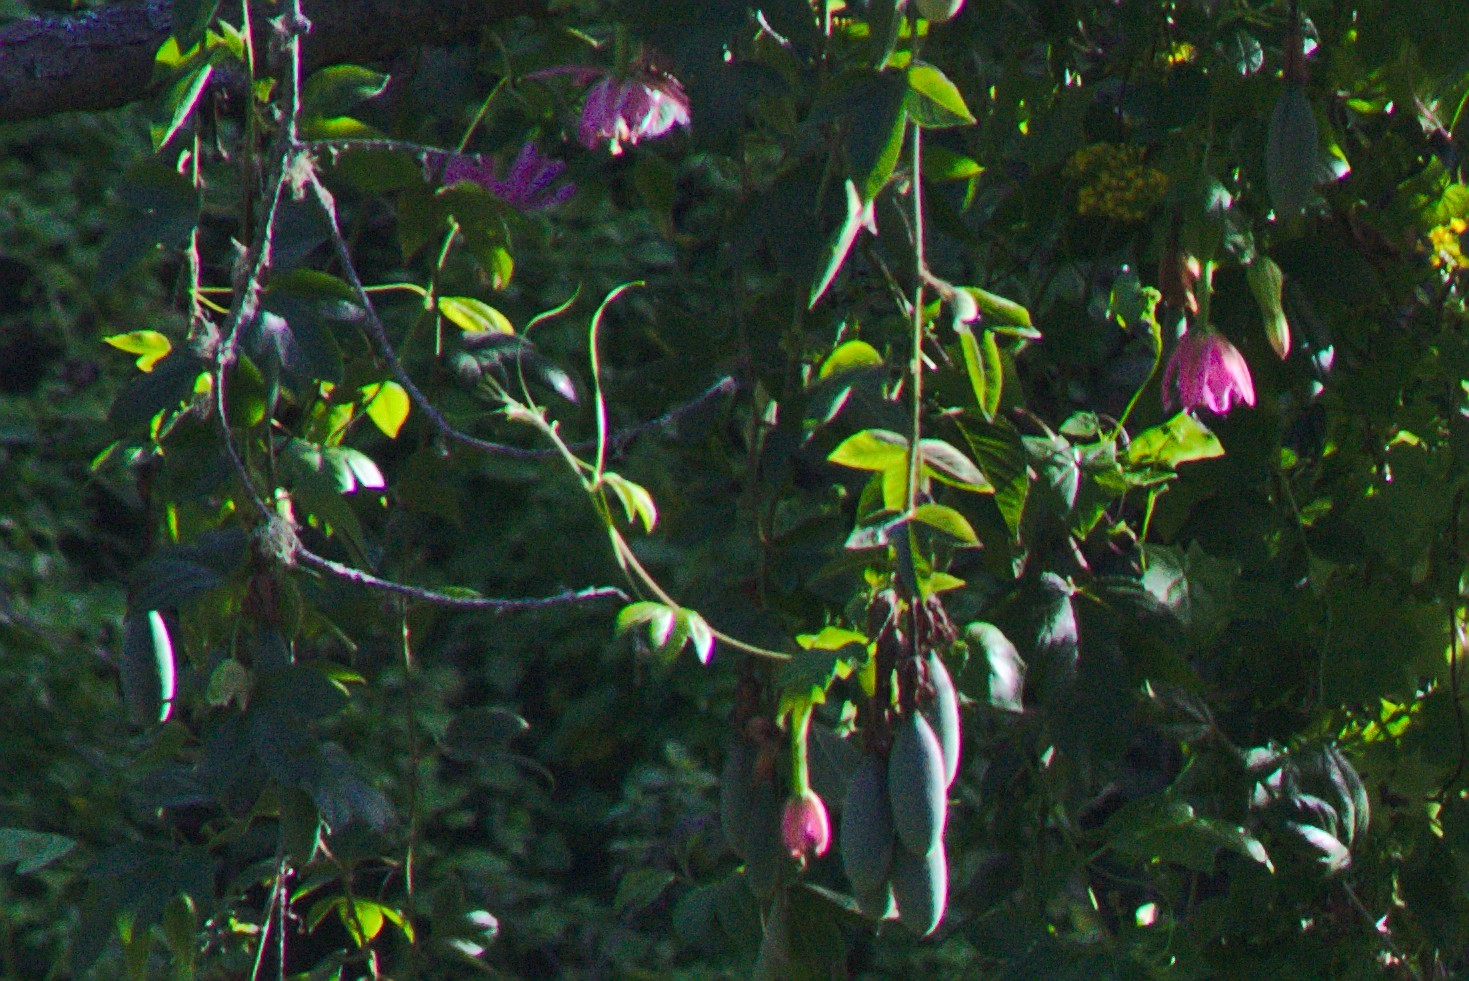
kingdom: Plantae
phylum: Tracheophyta
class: Magnoliopsida
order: Malpighiales
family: Passifloraceae
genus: Passiflora
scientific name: Passiflora tarminiana
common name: Banana poka
